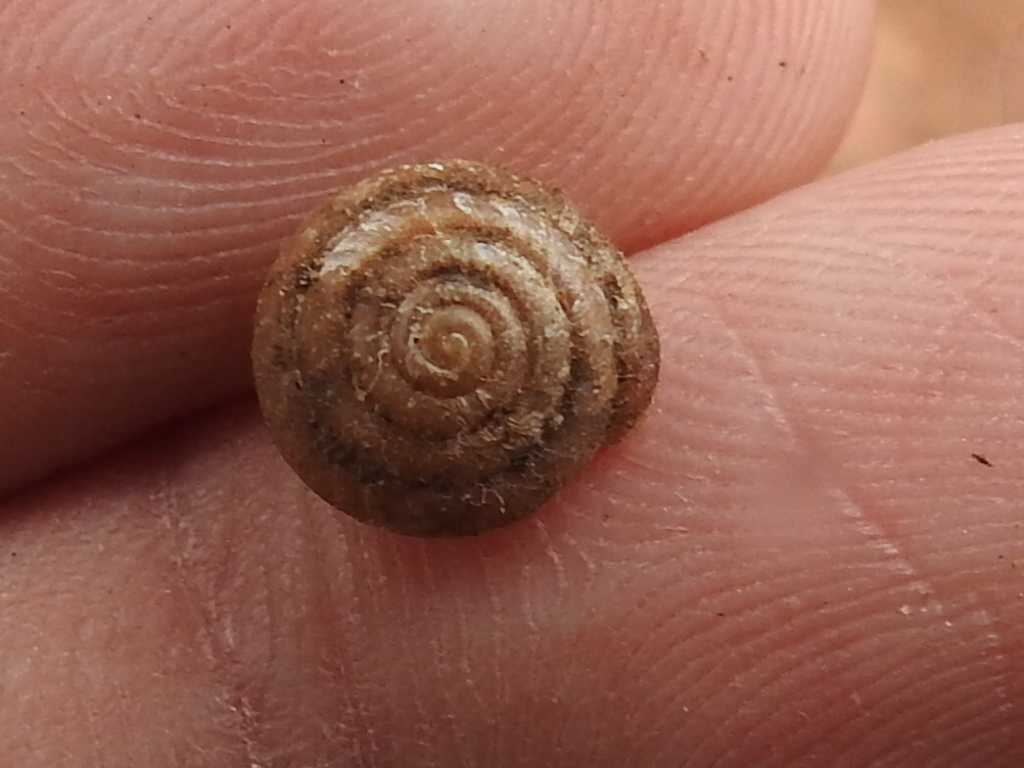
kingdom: Animalia
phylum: Mollusca
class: Gastropoda
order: Stylommatophora
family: Polygyridae
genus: Euchemotrema
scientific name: Euchemotrema leaii
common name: Lowland pillsnail
